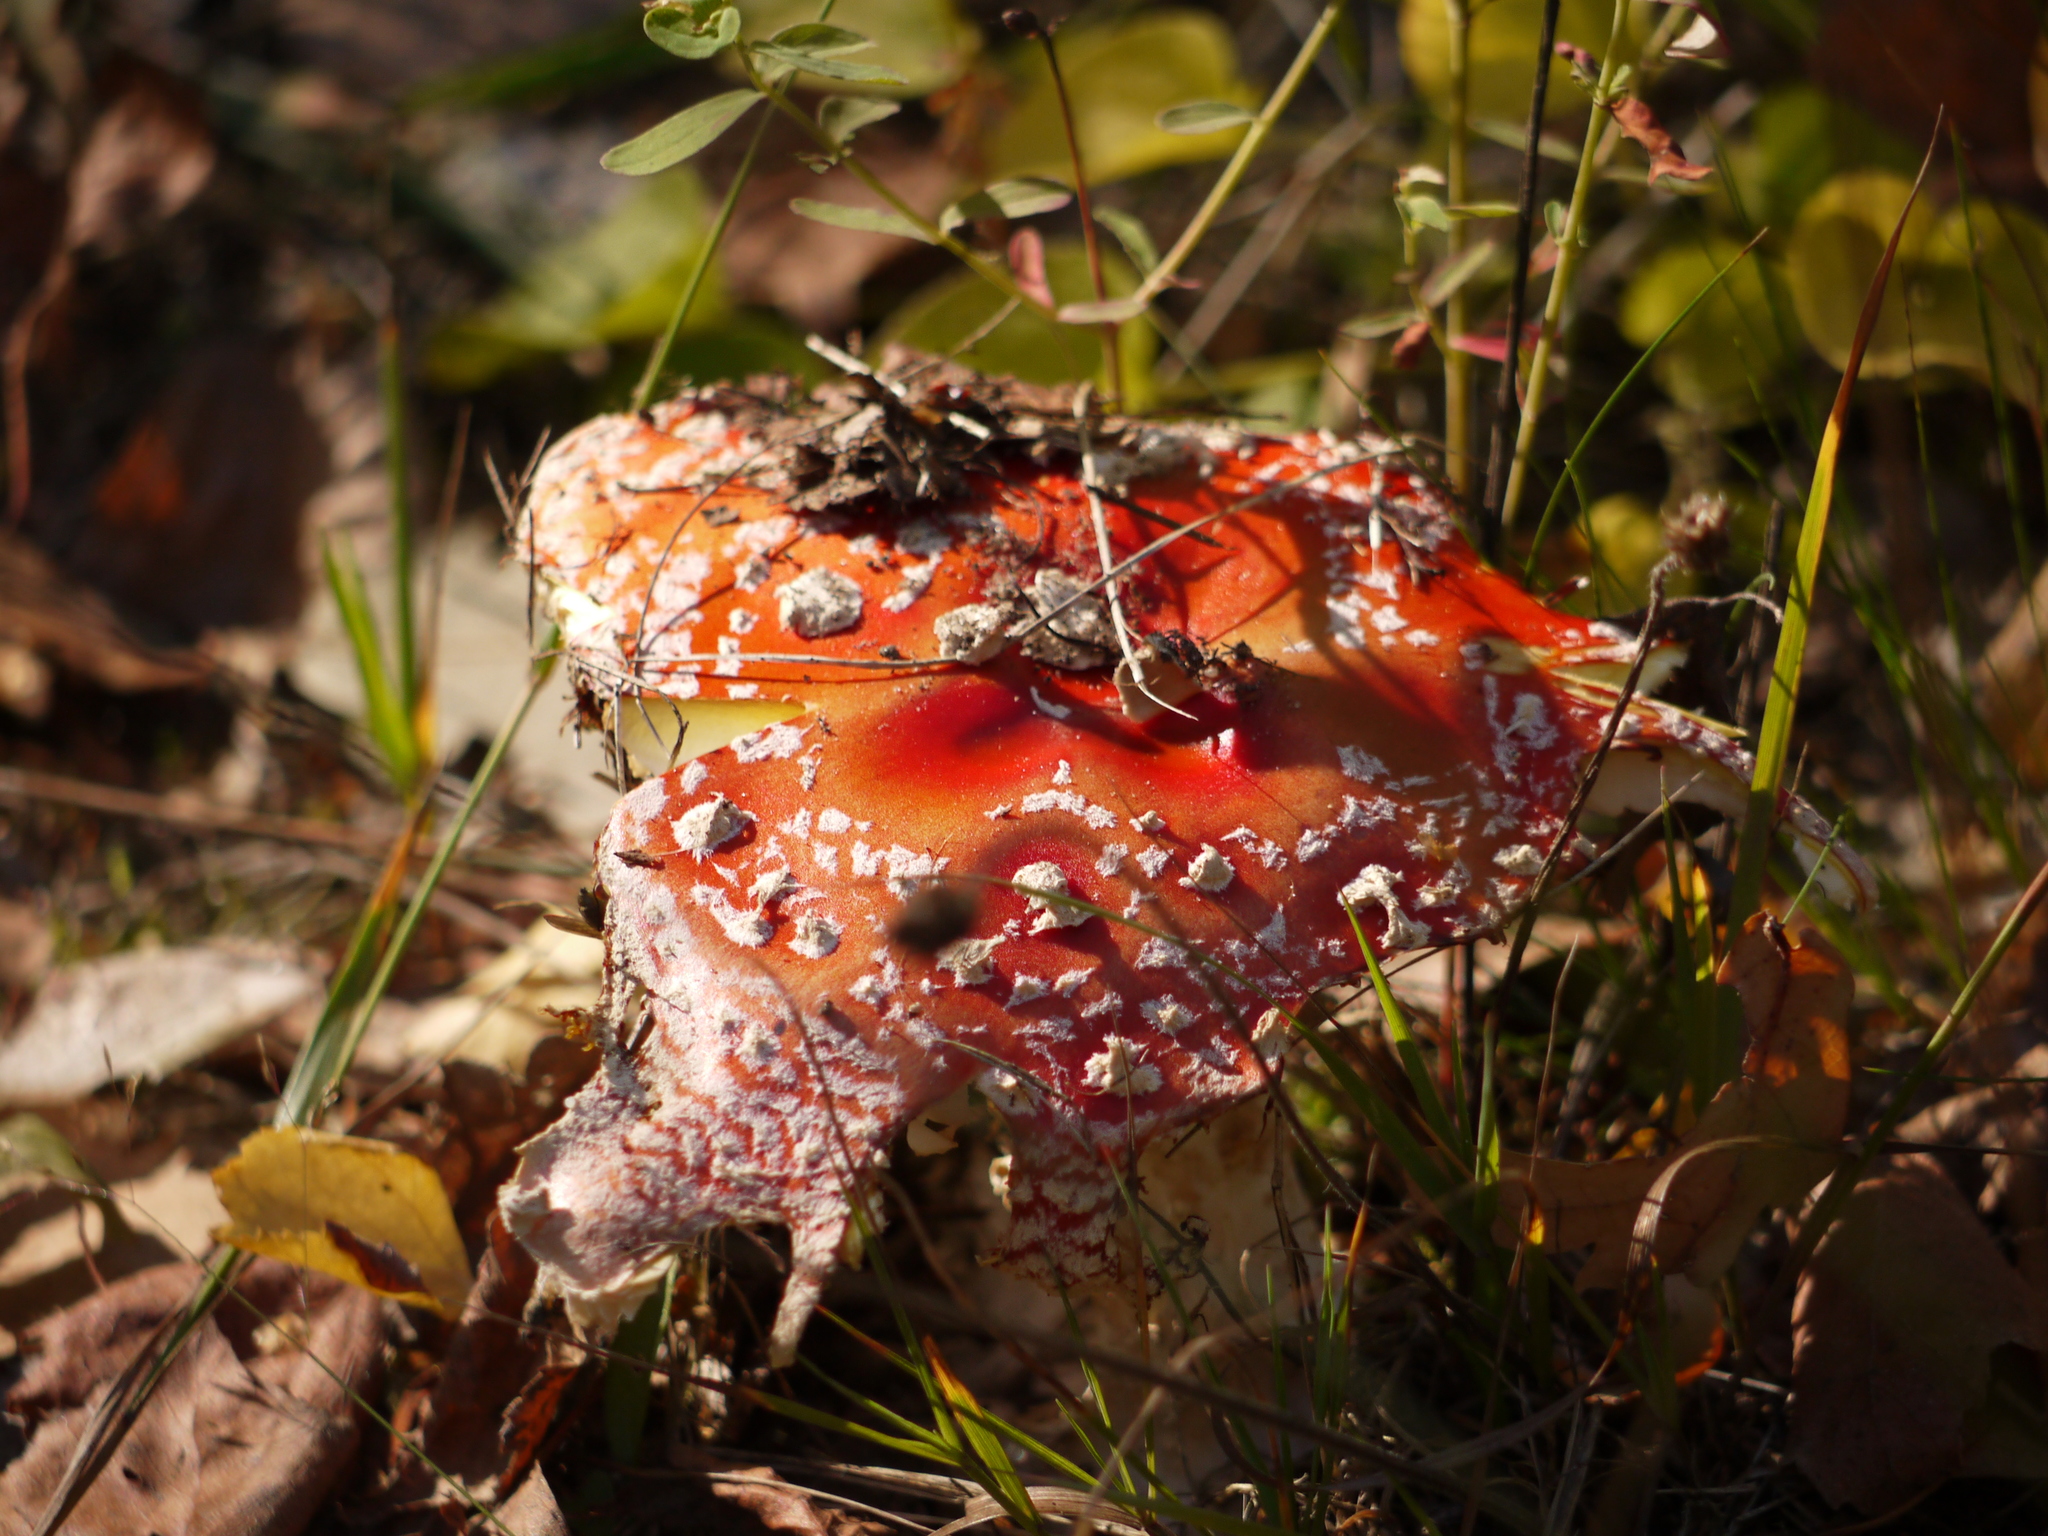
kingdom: Fungi
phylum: Basidiomycota
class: Agaricomycetes
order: Agaricales
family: Amanitaceae
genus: Amanita
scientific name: Amanita muscaria
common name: Fly agaric
